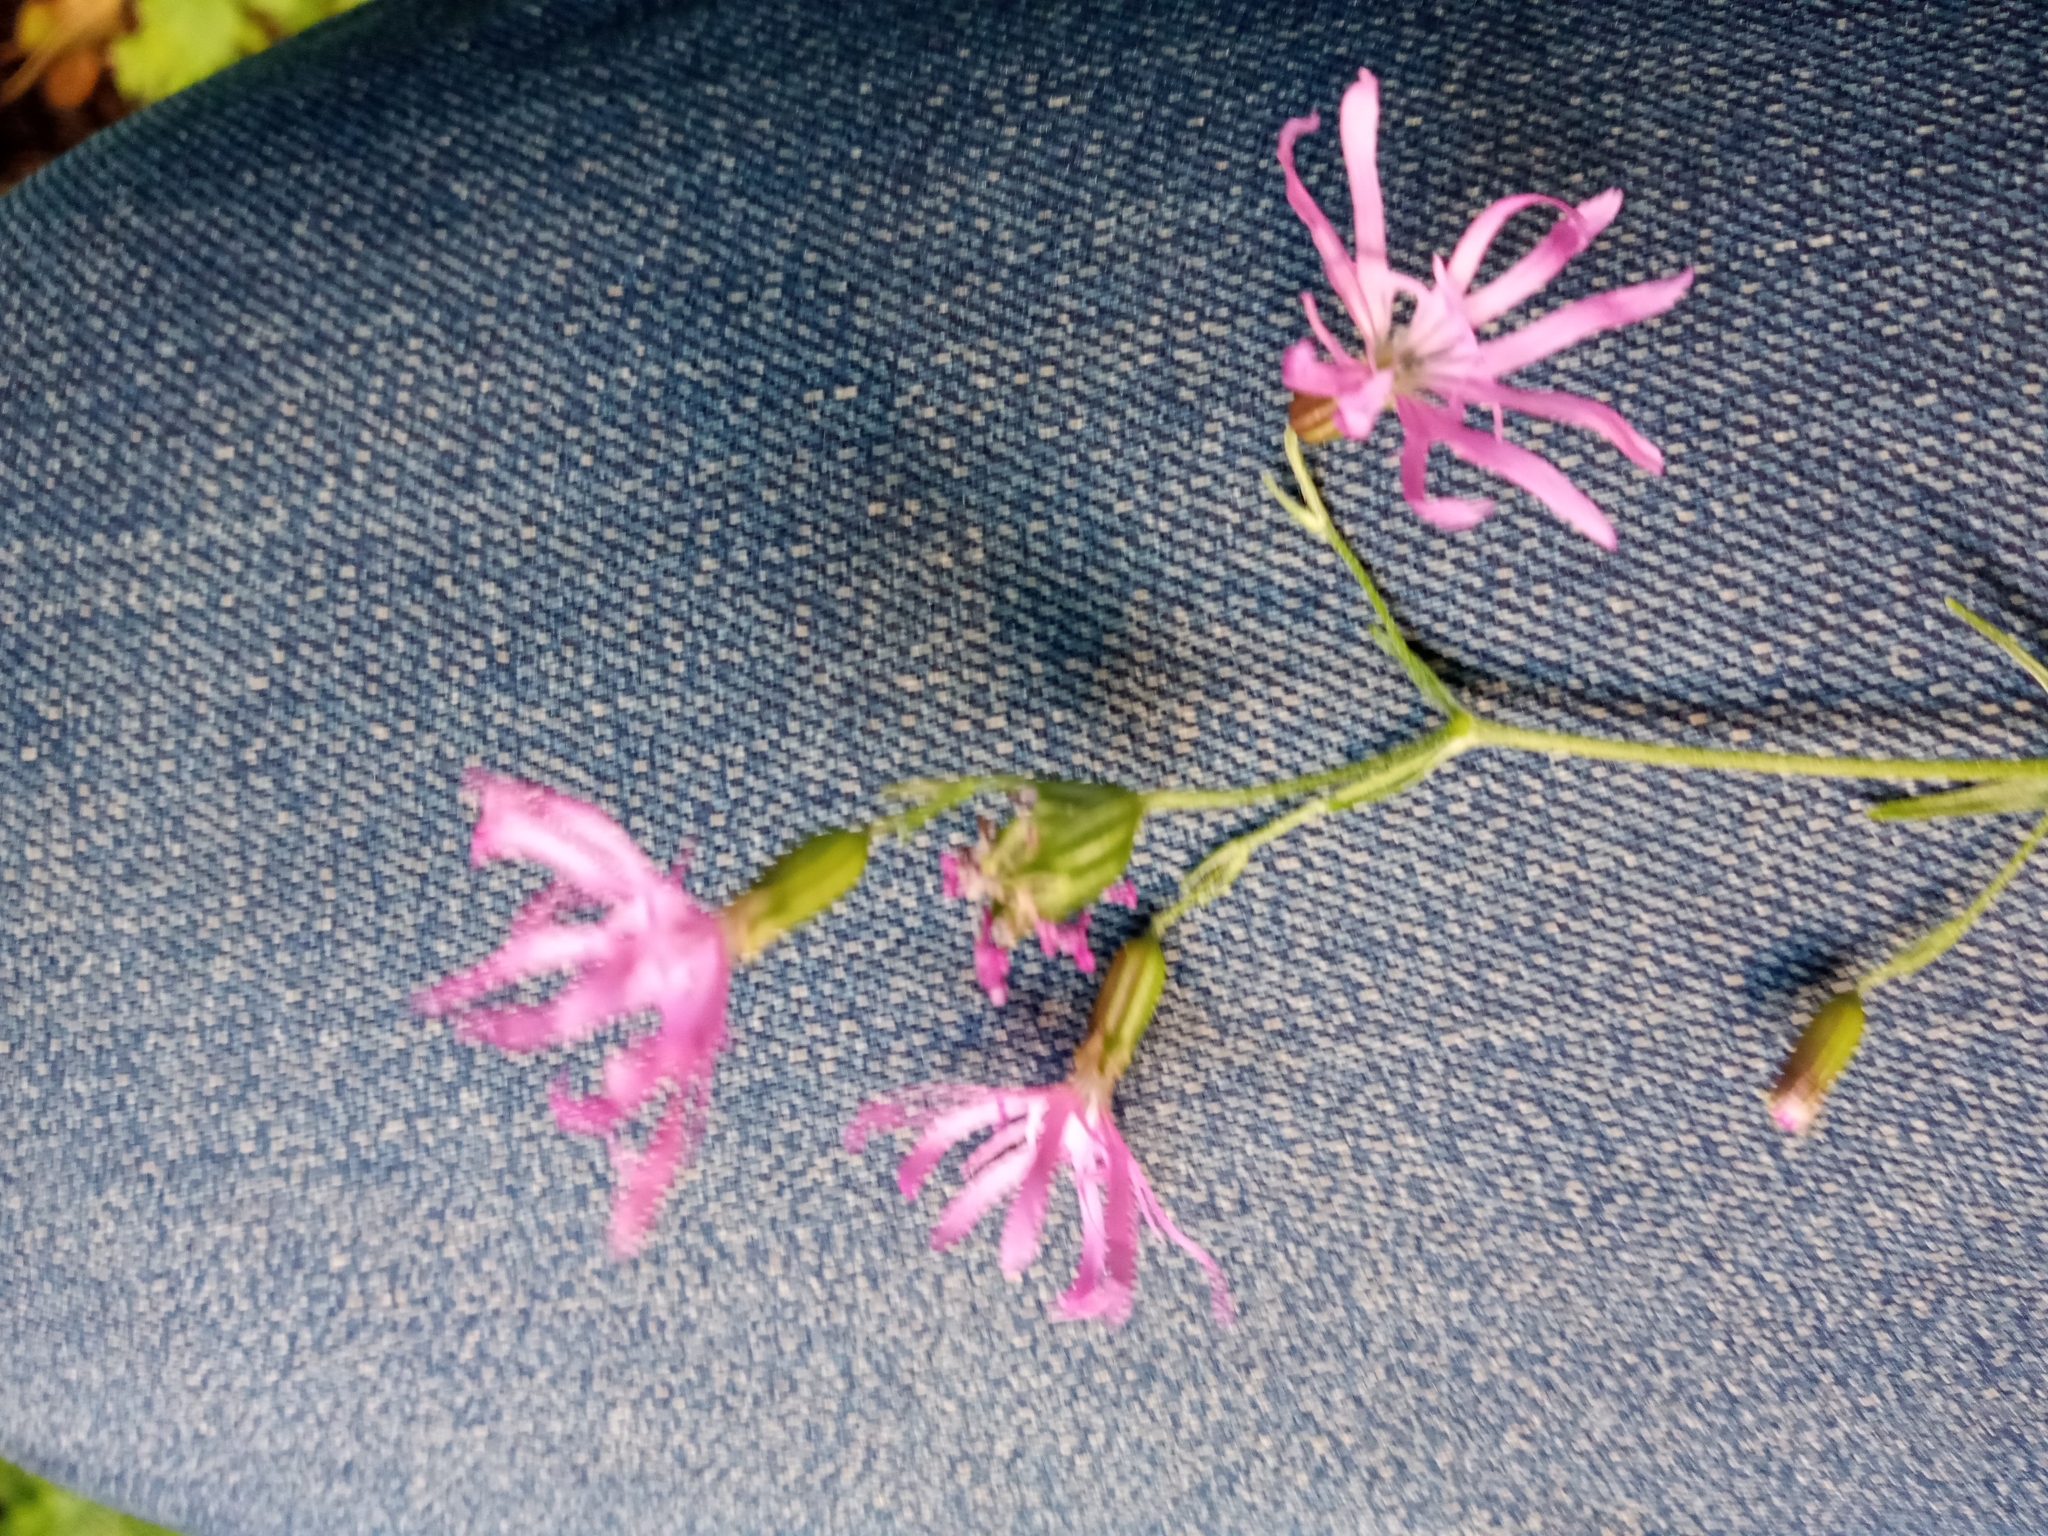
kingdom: Plantae
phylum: Tracheophyta
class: Magnoliopsida
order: Caryophyllales
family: Caryophyllaceae
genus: Silene
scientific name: Silene flos-cuculi
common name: Ragged-robin
